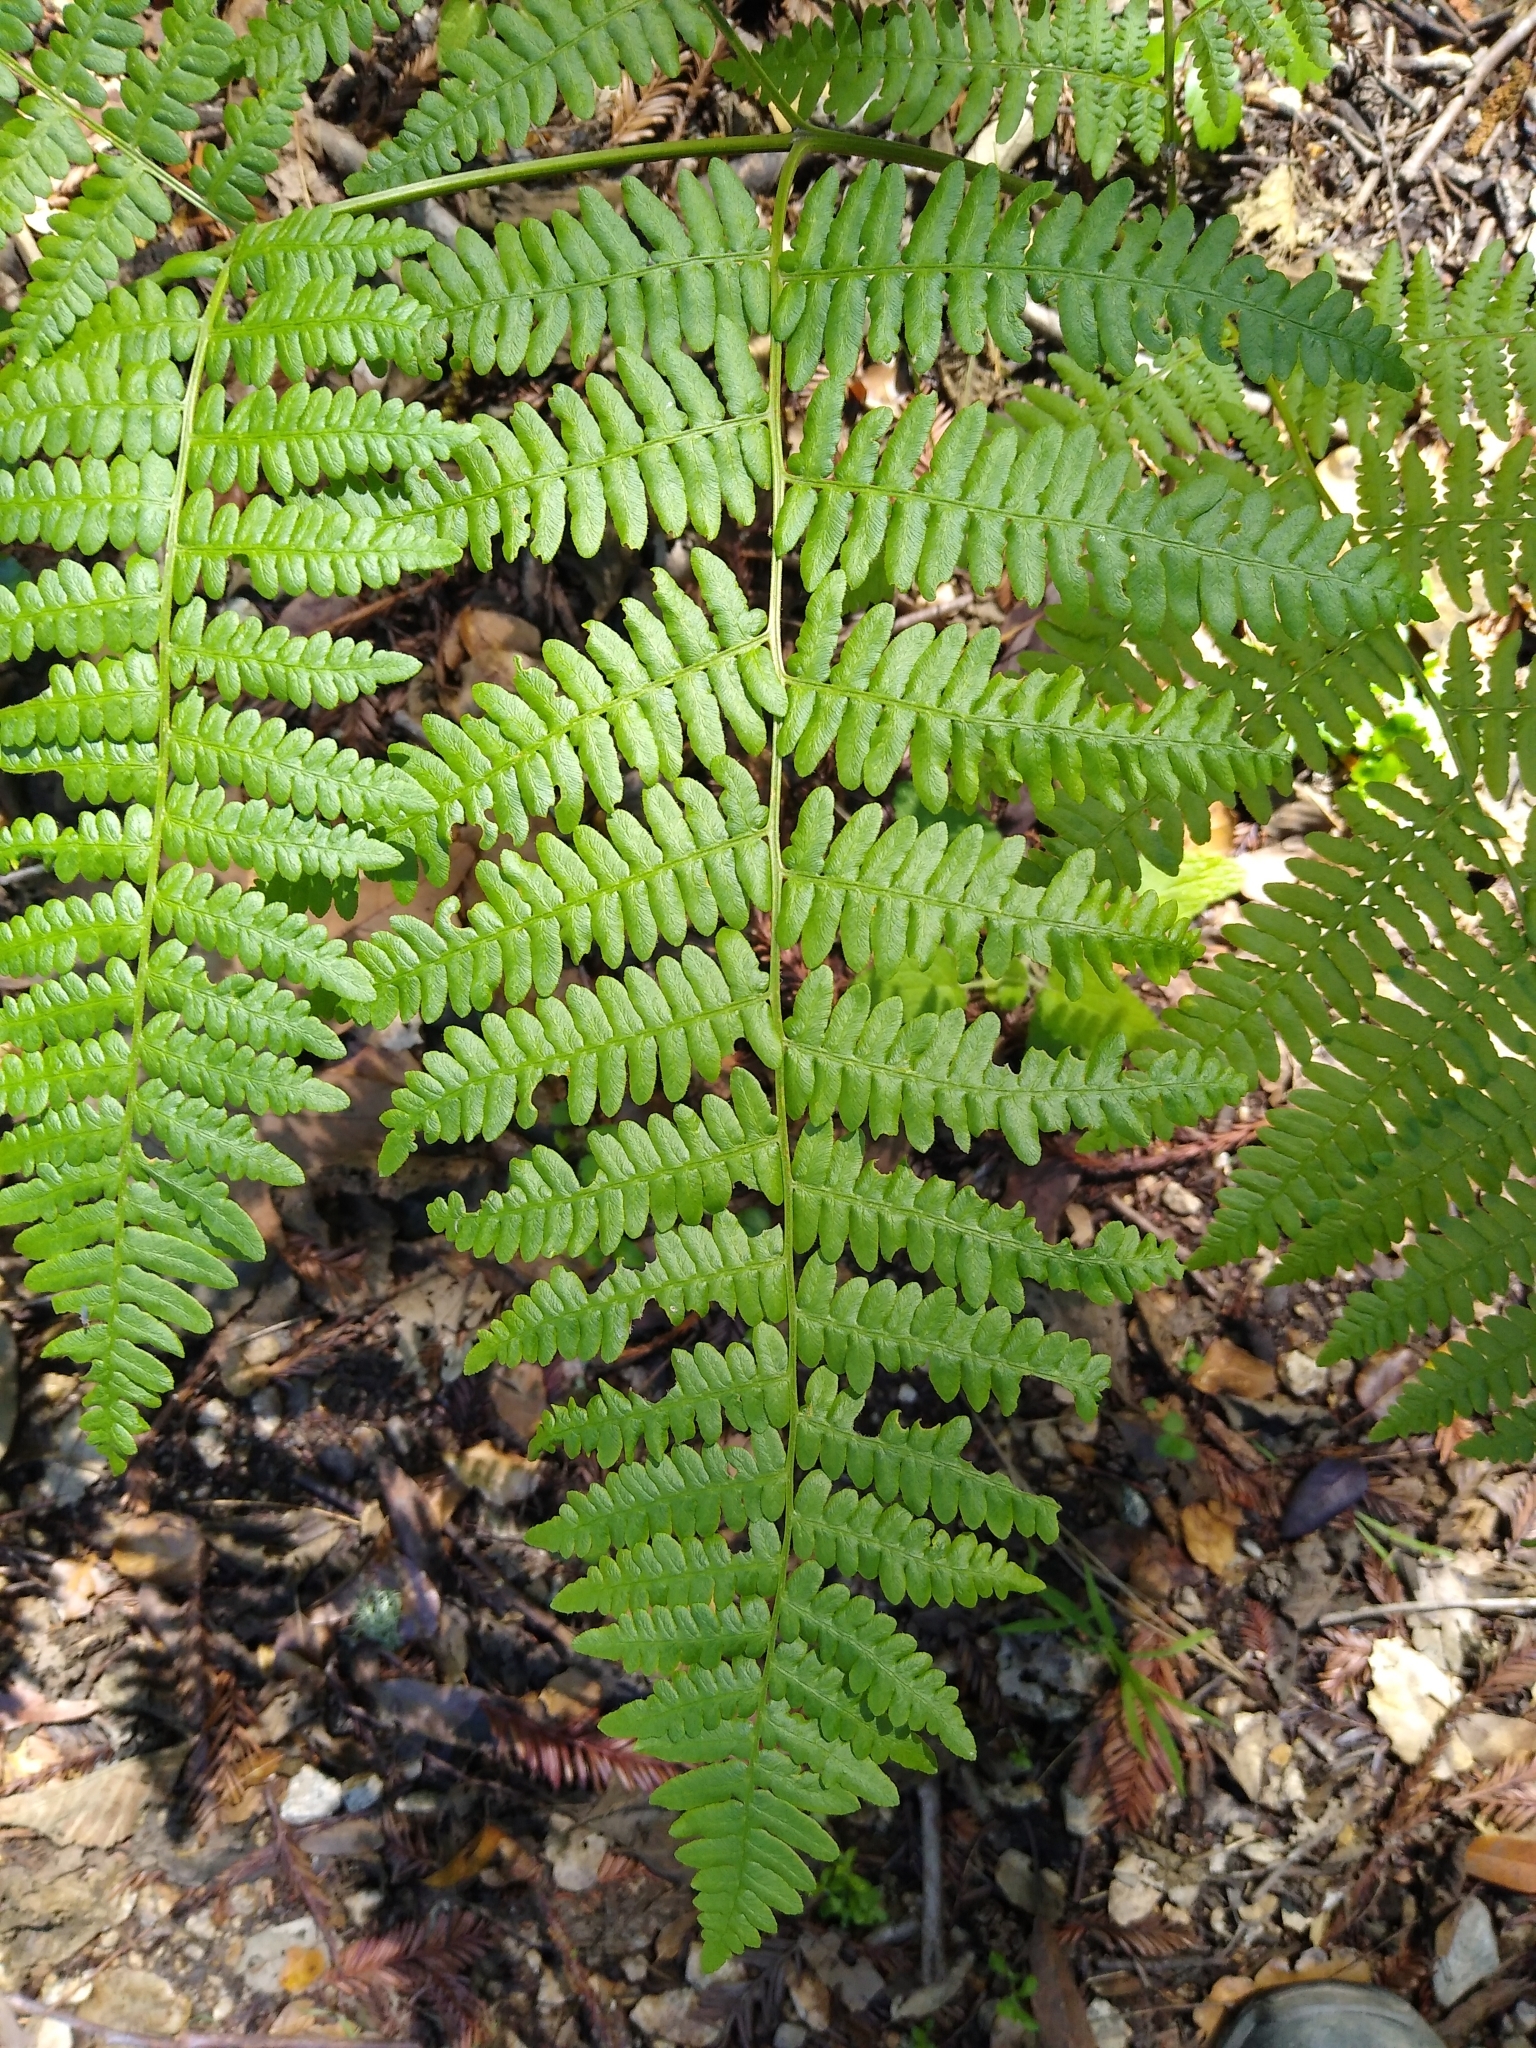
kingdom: Plantae
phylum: Tracheophyta
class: Polypodiopsida
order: Polypodiales
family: Dennstaedtiaceae
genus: Pteridium
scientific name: Pteridium aquilinum
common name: Bracken
